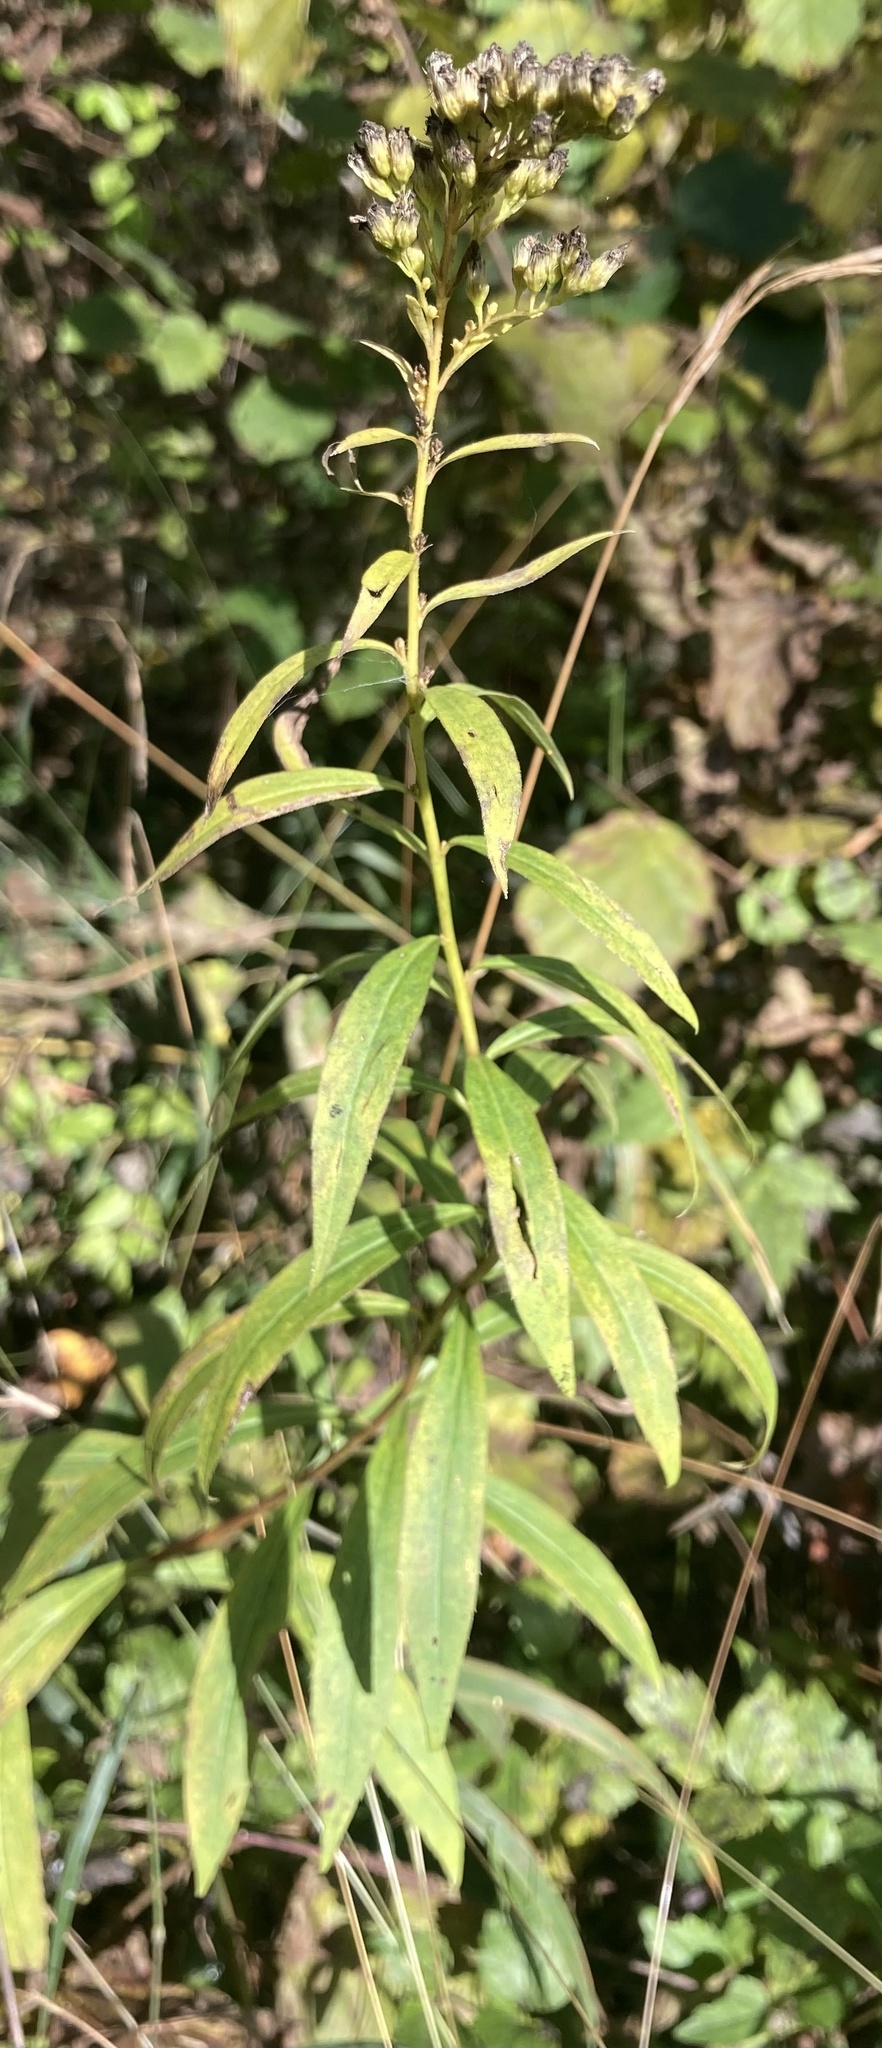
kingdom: Plantae
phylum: Tracheophyta
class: Magnoliopsida
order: Asterales
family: Asteraceae
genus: Solidago
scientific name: Solidago gigantea
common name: Giant goldenrod
